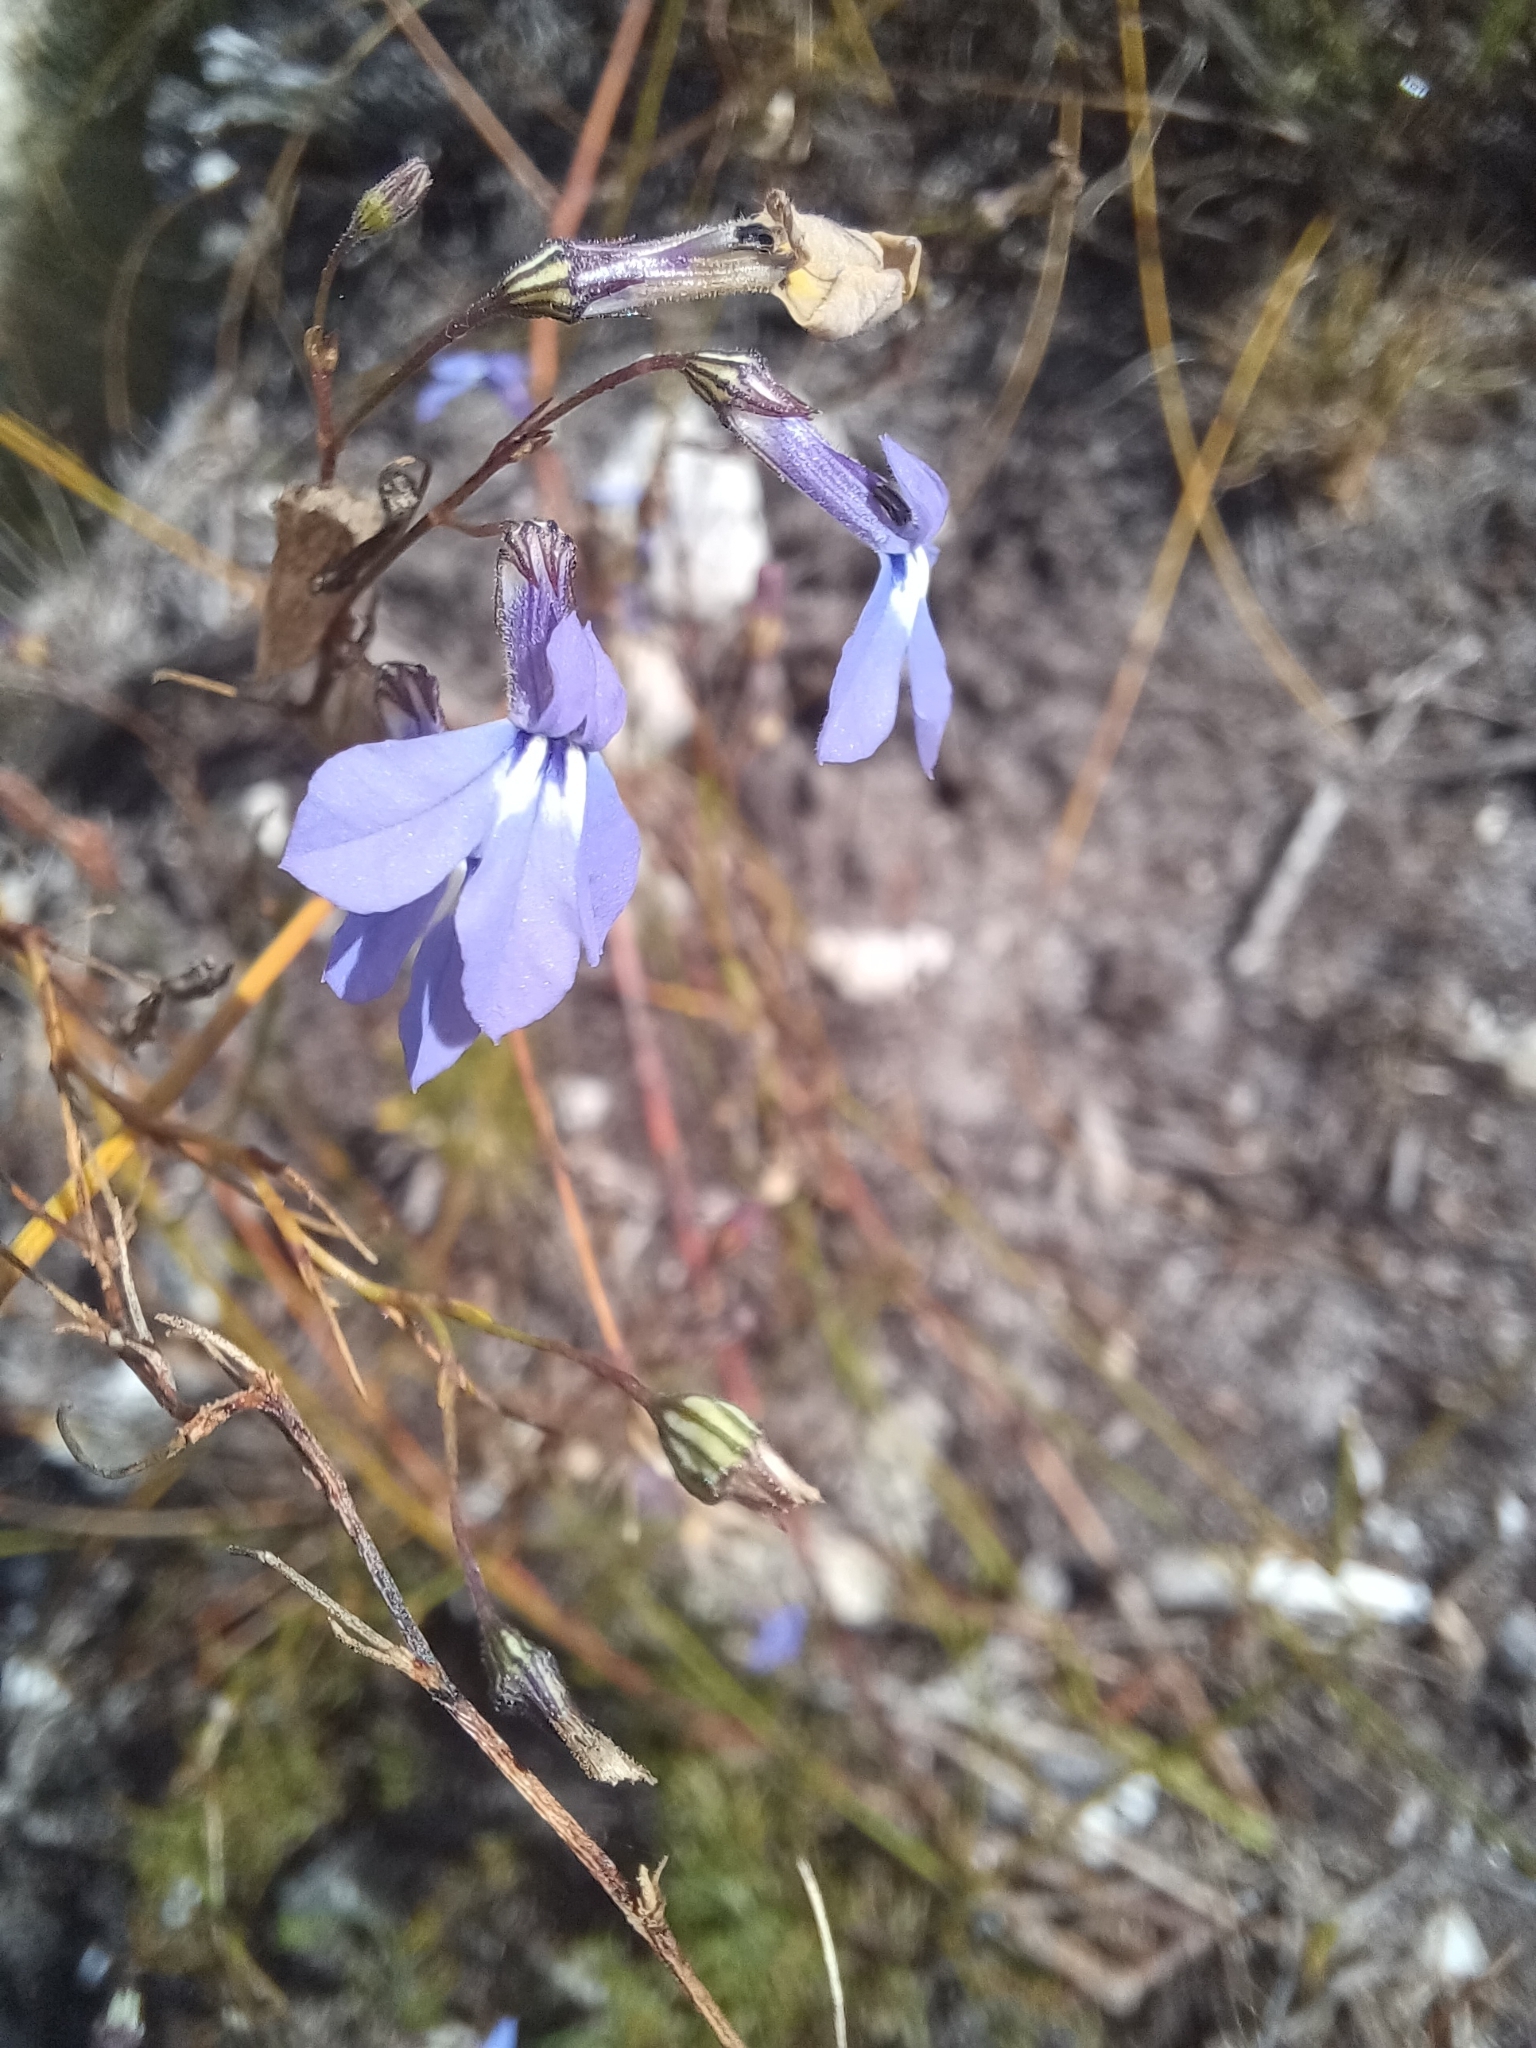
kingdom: Plantae
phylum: Tracheophyta
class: Magnoliopsida
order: Asterales
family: Campanulaceae
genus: Lobelia
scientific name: Lobelia setacea
